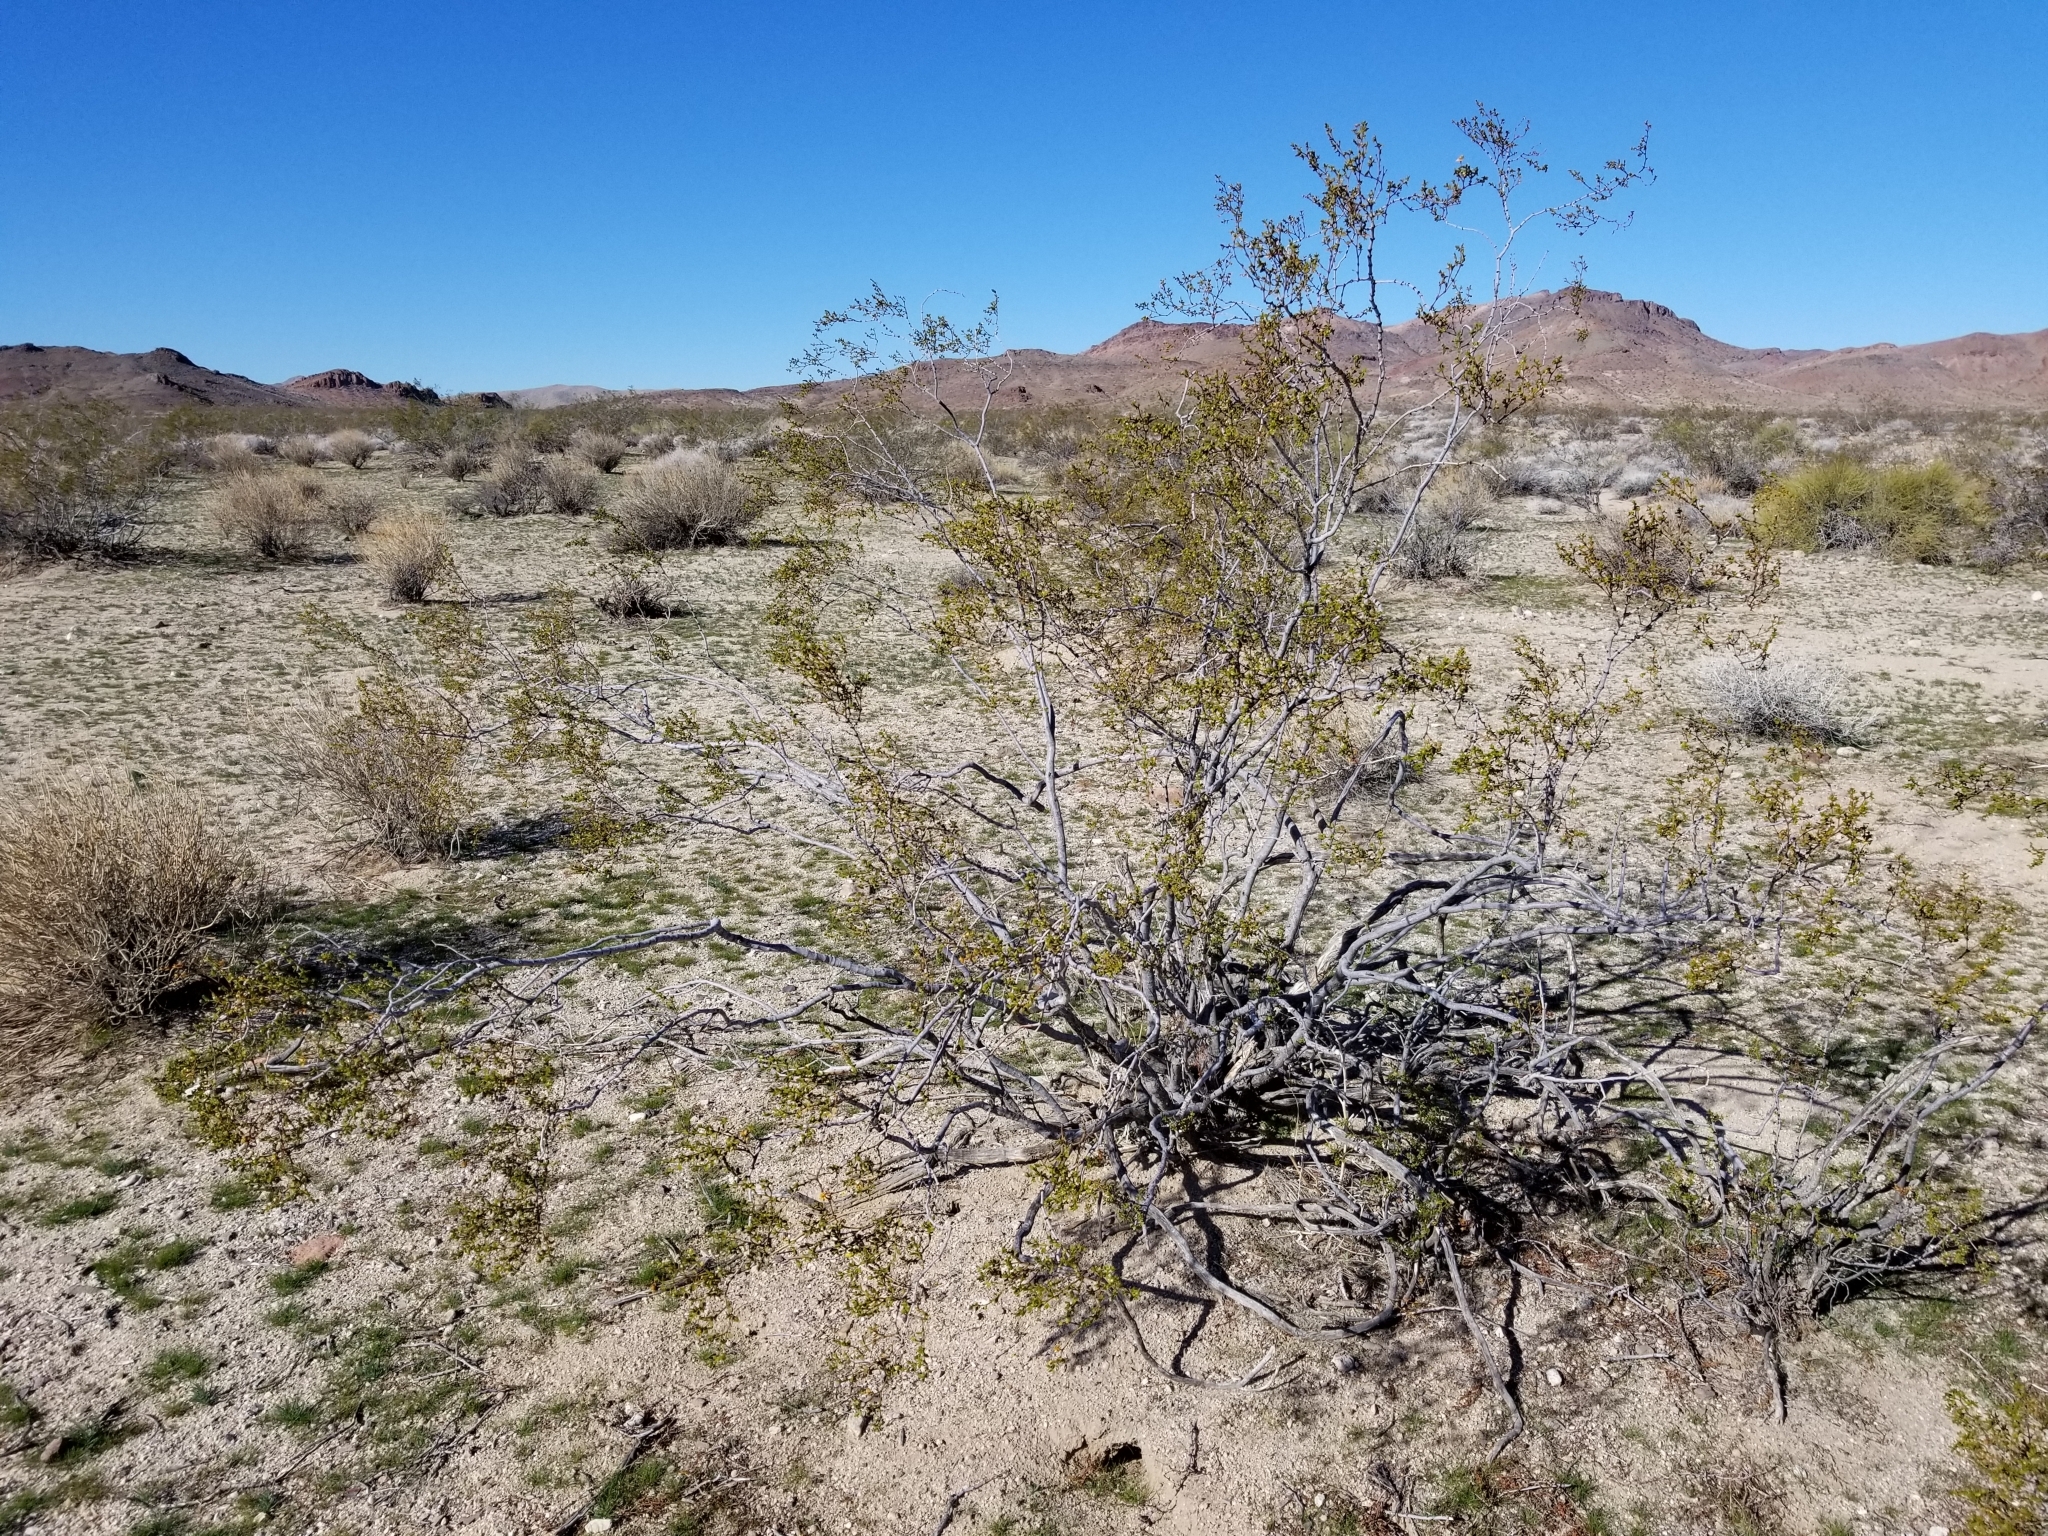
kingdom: Plantae
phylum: Tracheophyta
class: Magnoliopsida
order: Zygophyllales
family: Zygophyllaceae
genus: Larrea
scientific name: Larrea tridentata
